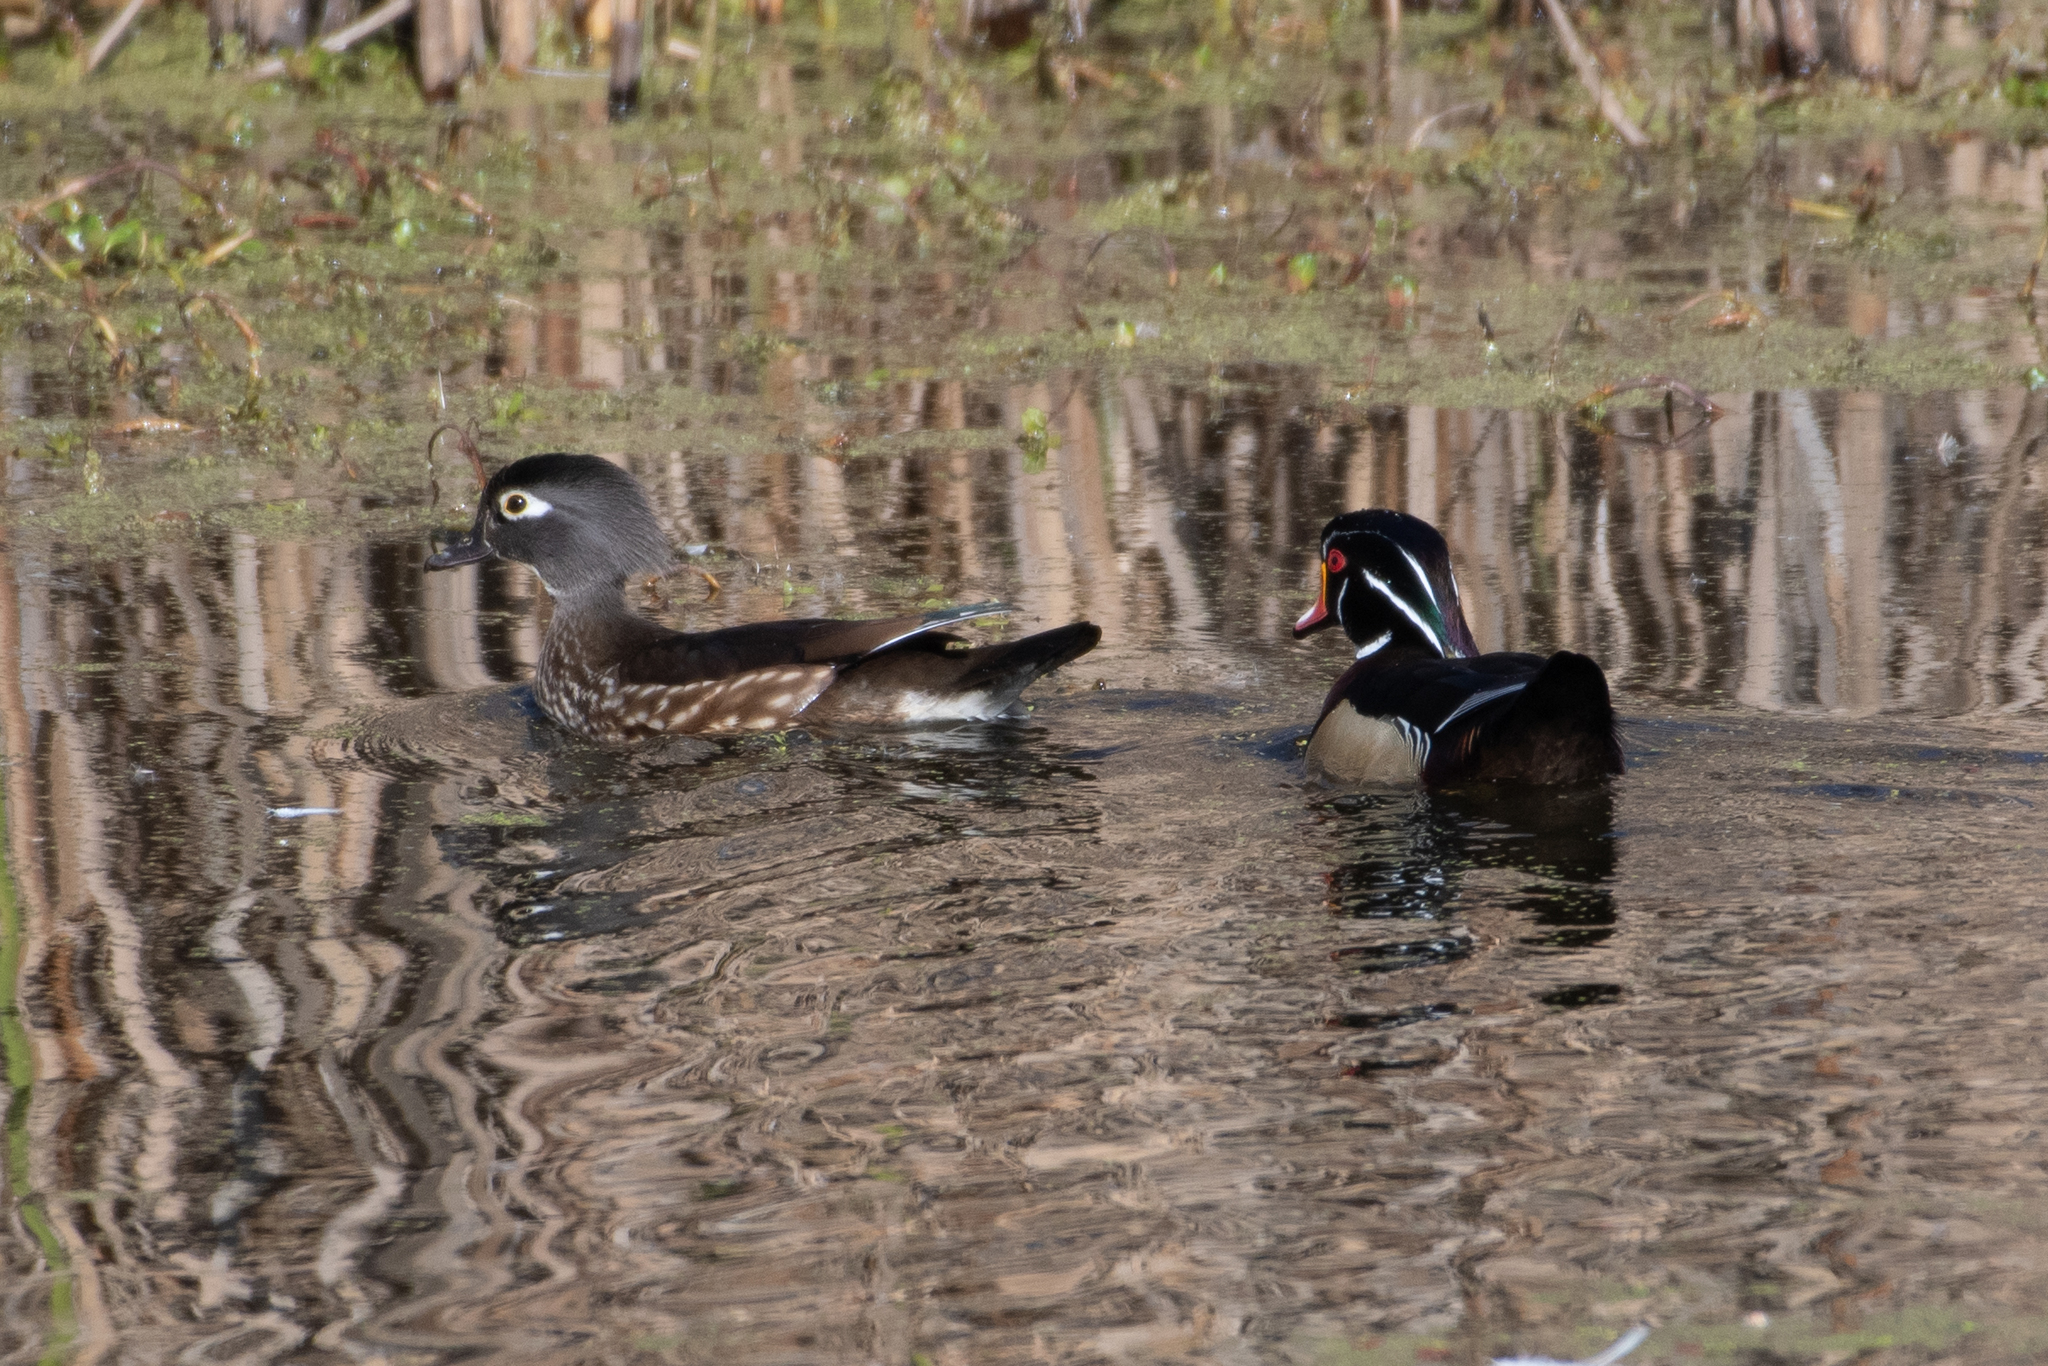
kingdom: Animalia
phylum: Chordata
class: Aves
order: Anseriformes
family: Anatidae
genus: Aix
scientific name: Aix sponsa
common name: Wood duck
